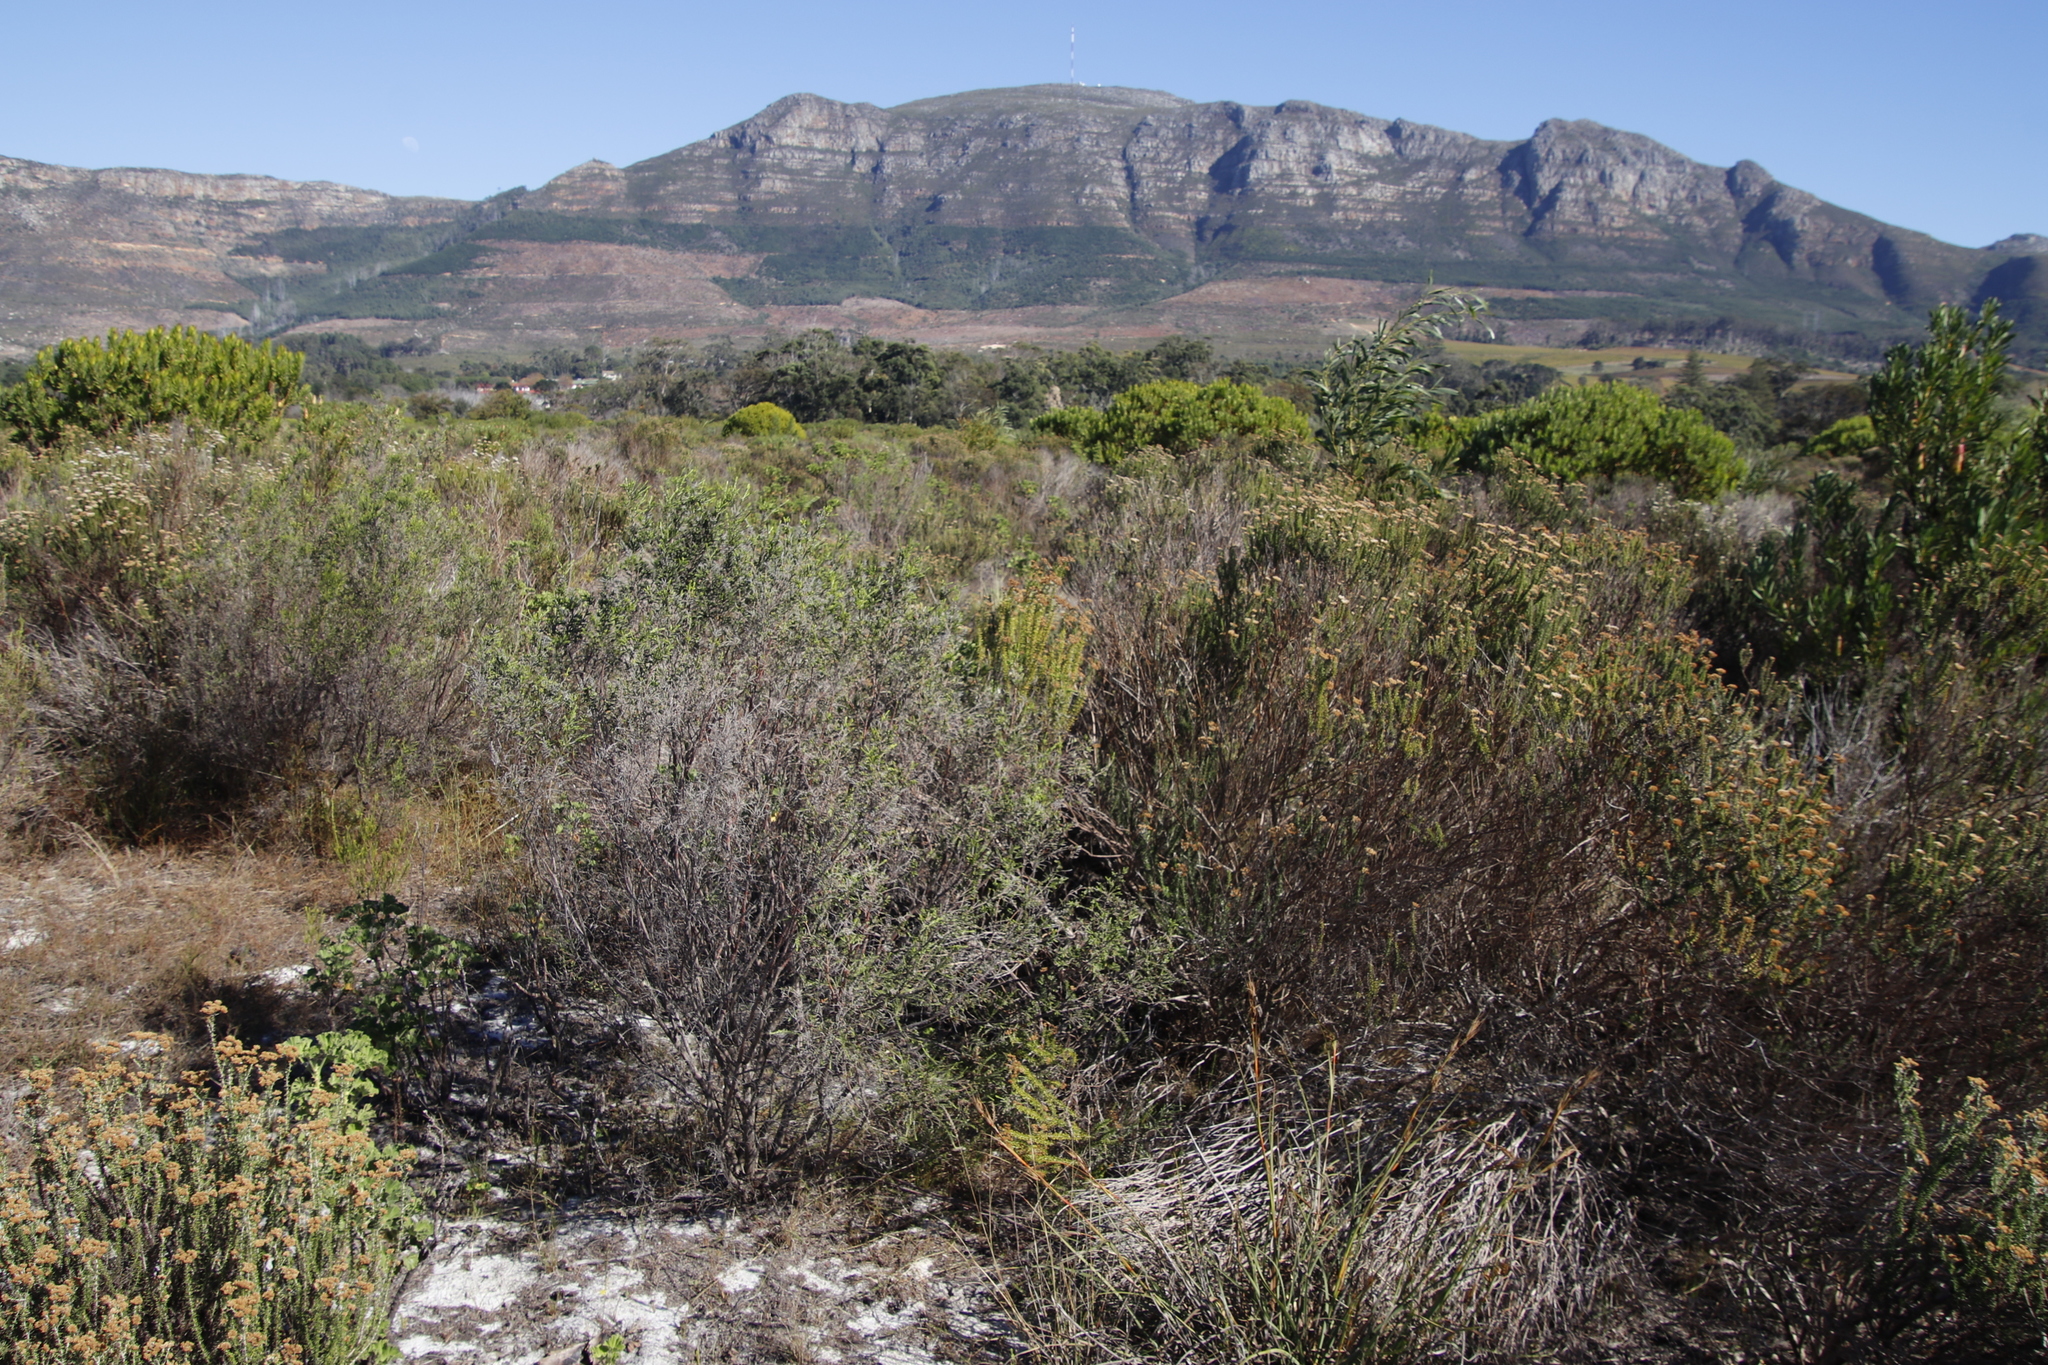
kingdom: Plantae
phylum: Tracheophyta
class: Magnoliopsida
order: Asterales
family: Asteraceae
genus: Metalasia
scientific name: Metalasia densa
